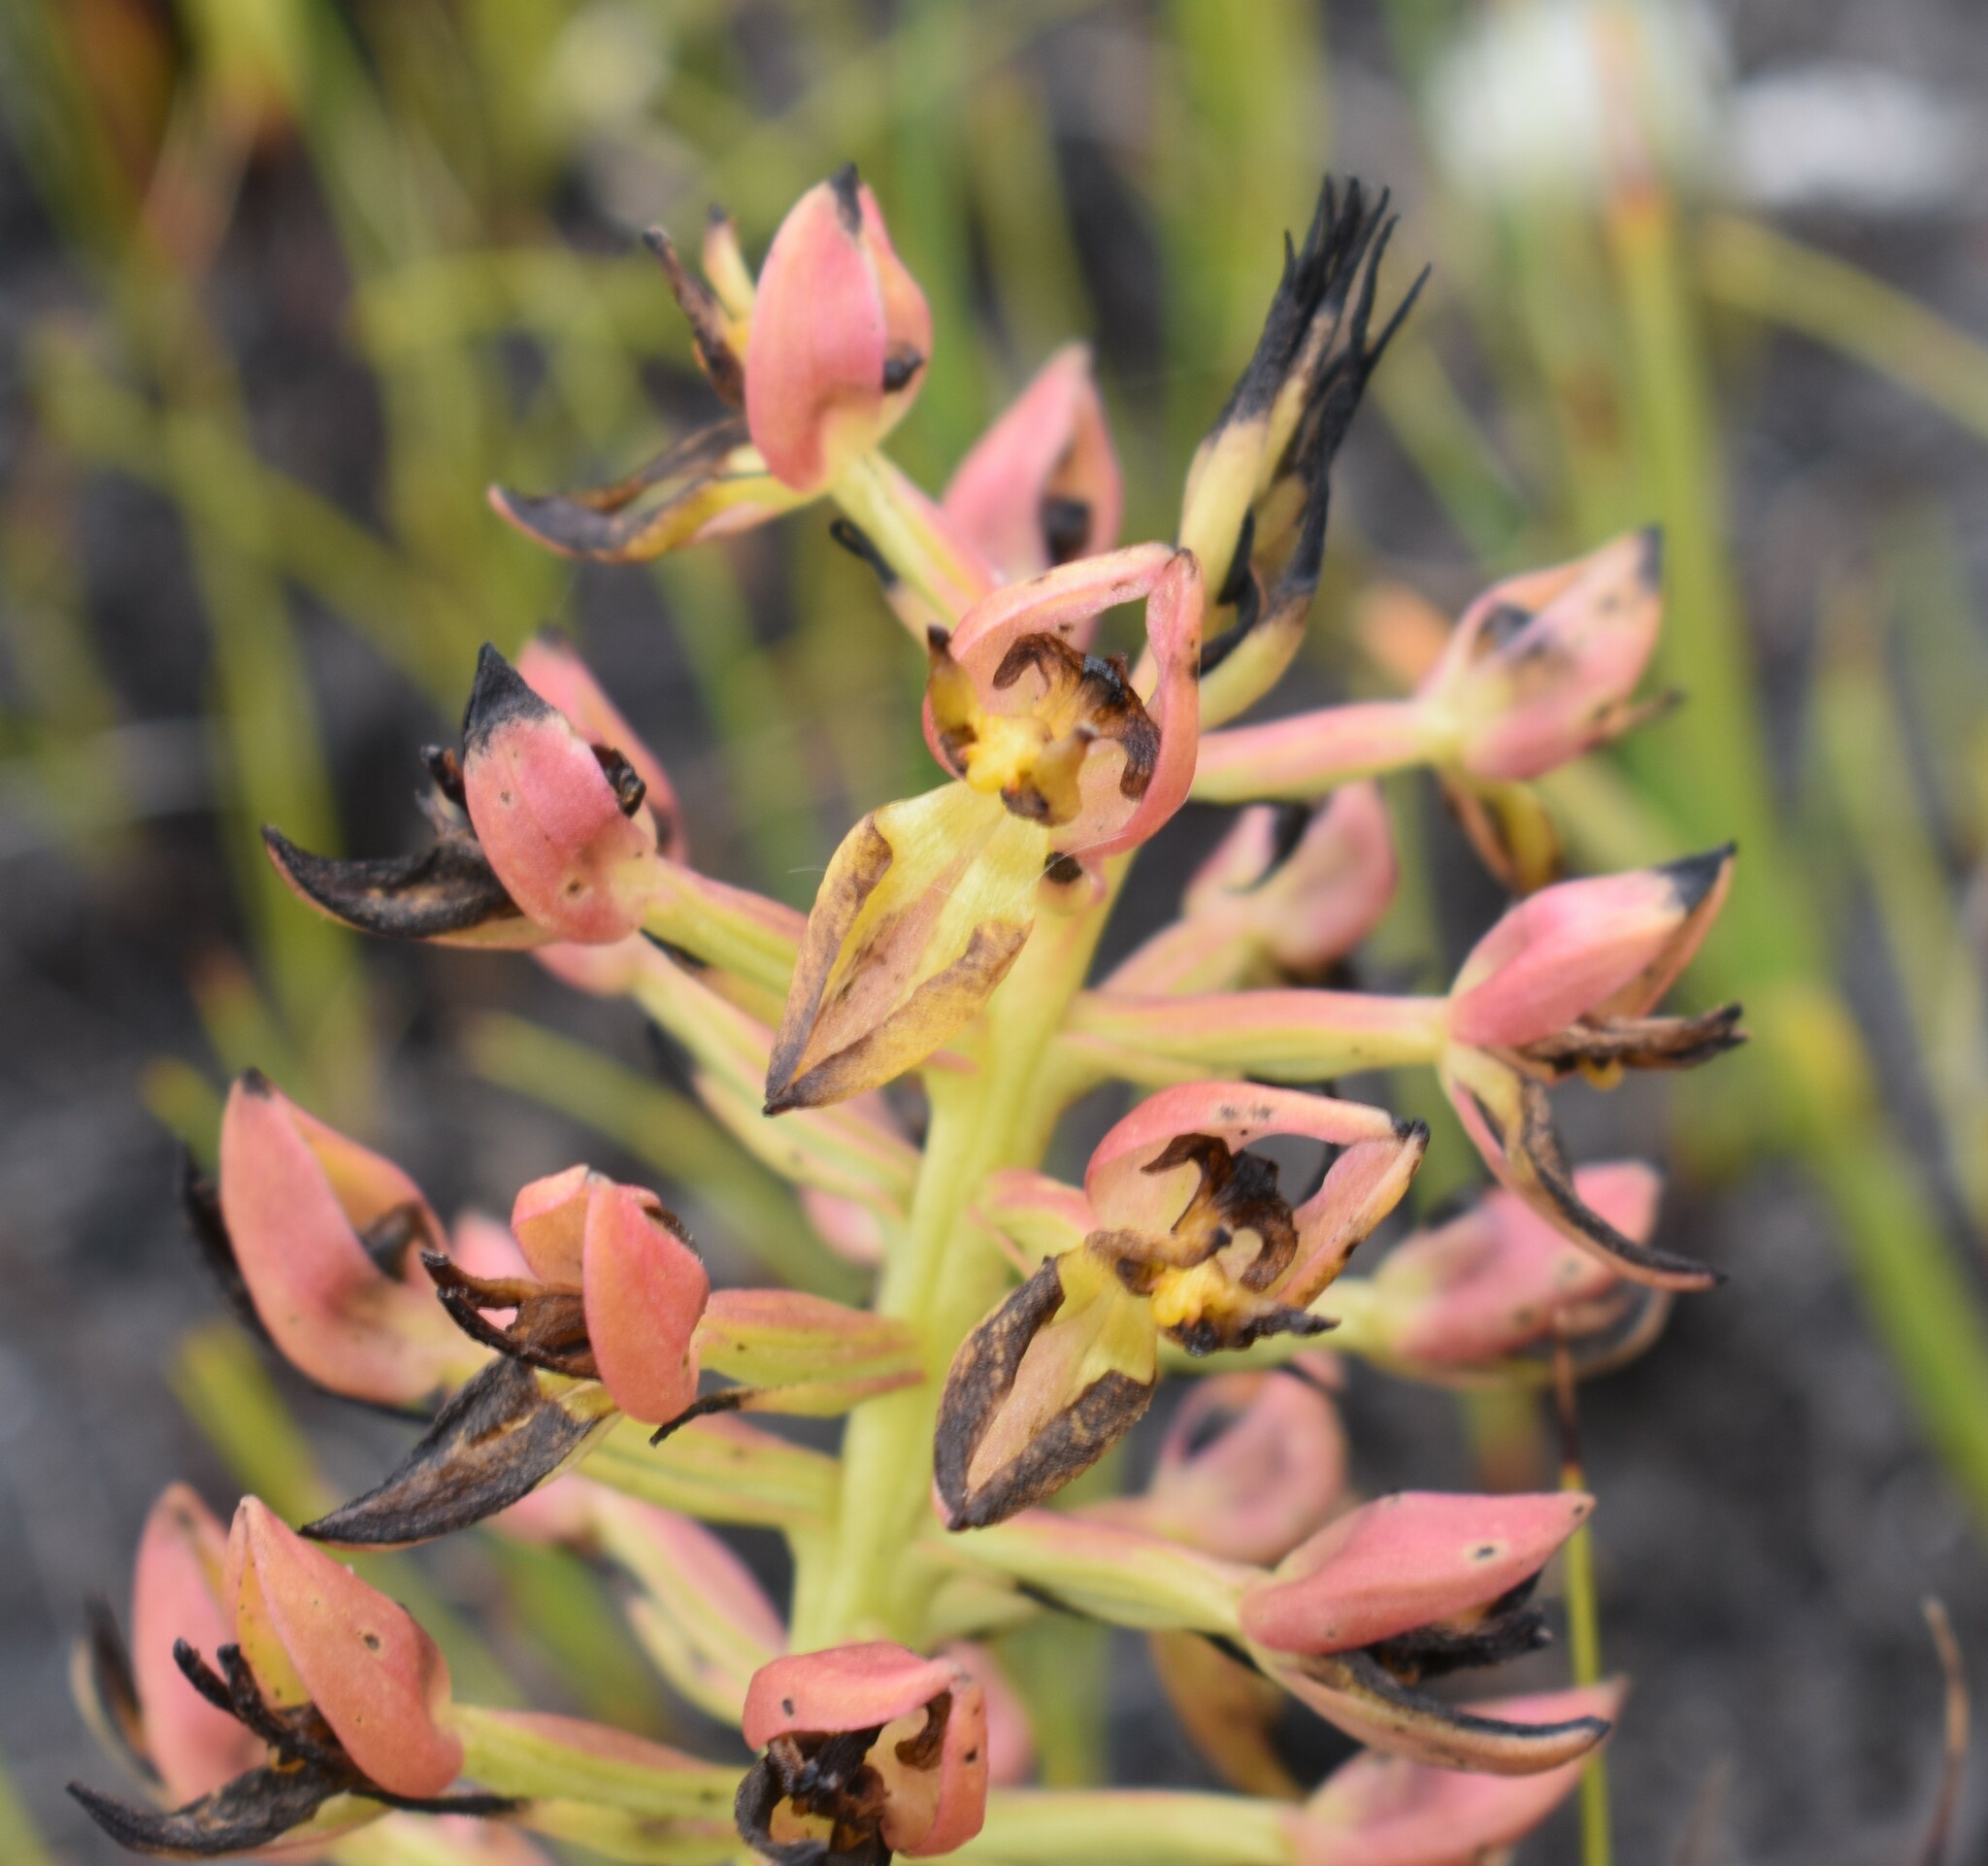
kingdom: Plantae
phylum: Tracheophyta
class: Liliopsida
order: Asparagales
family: Orchidaceae
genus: Ceratandra
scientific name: Ceratandra atrata
